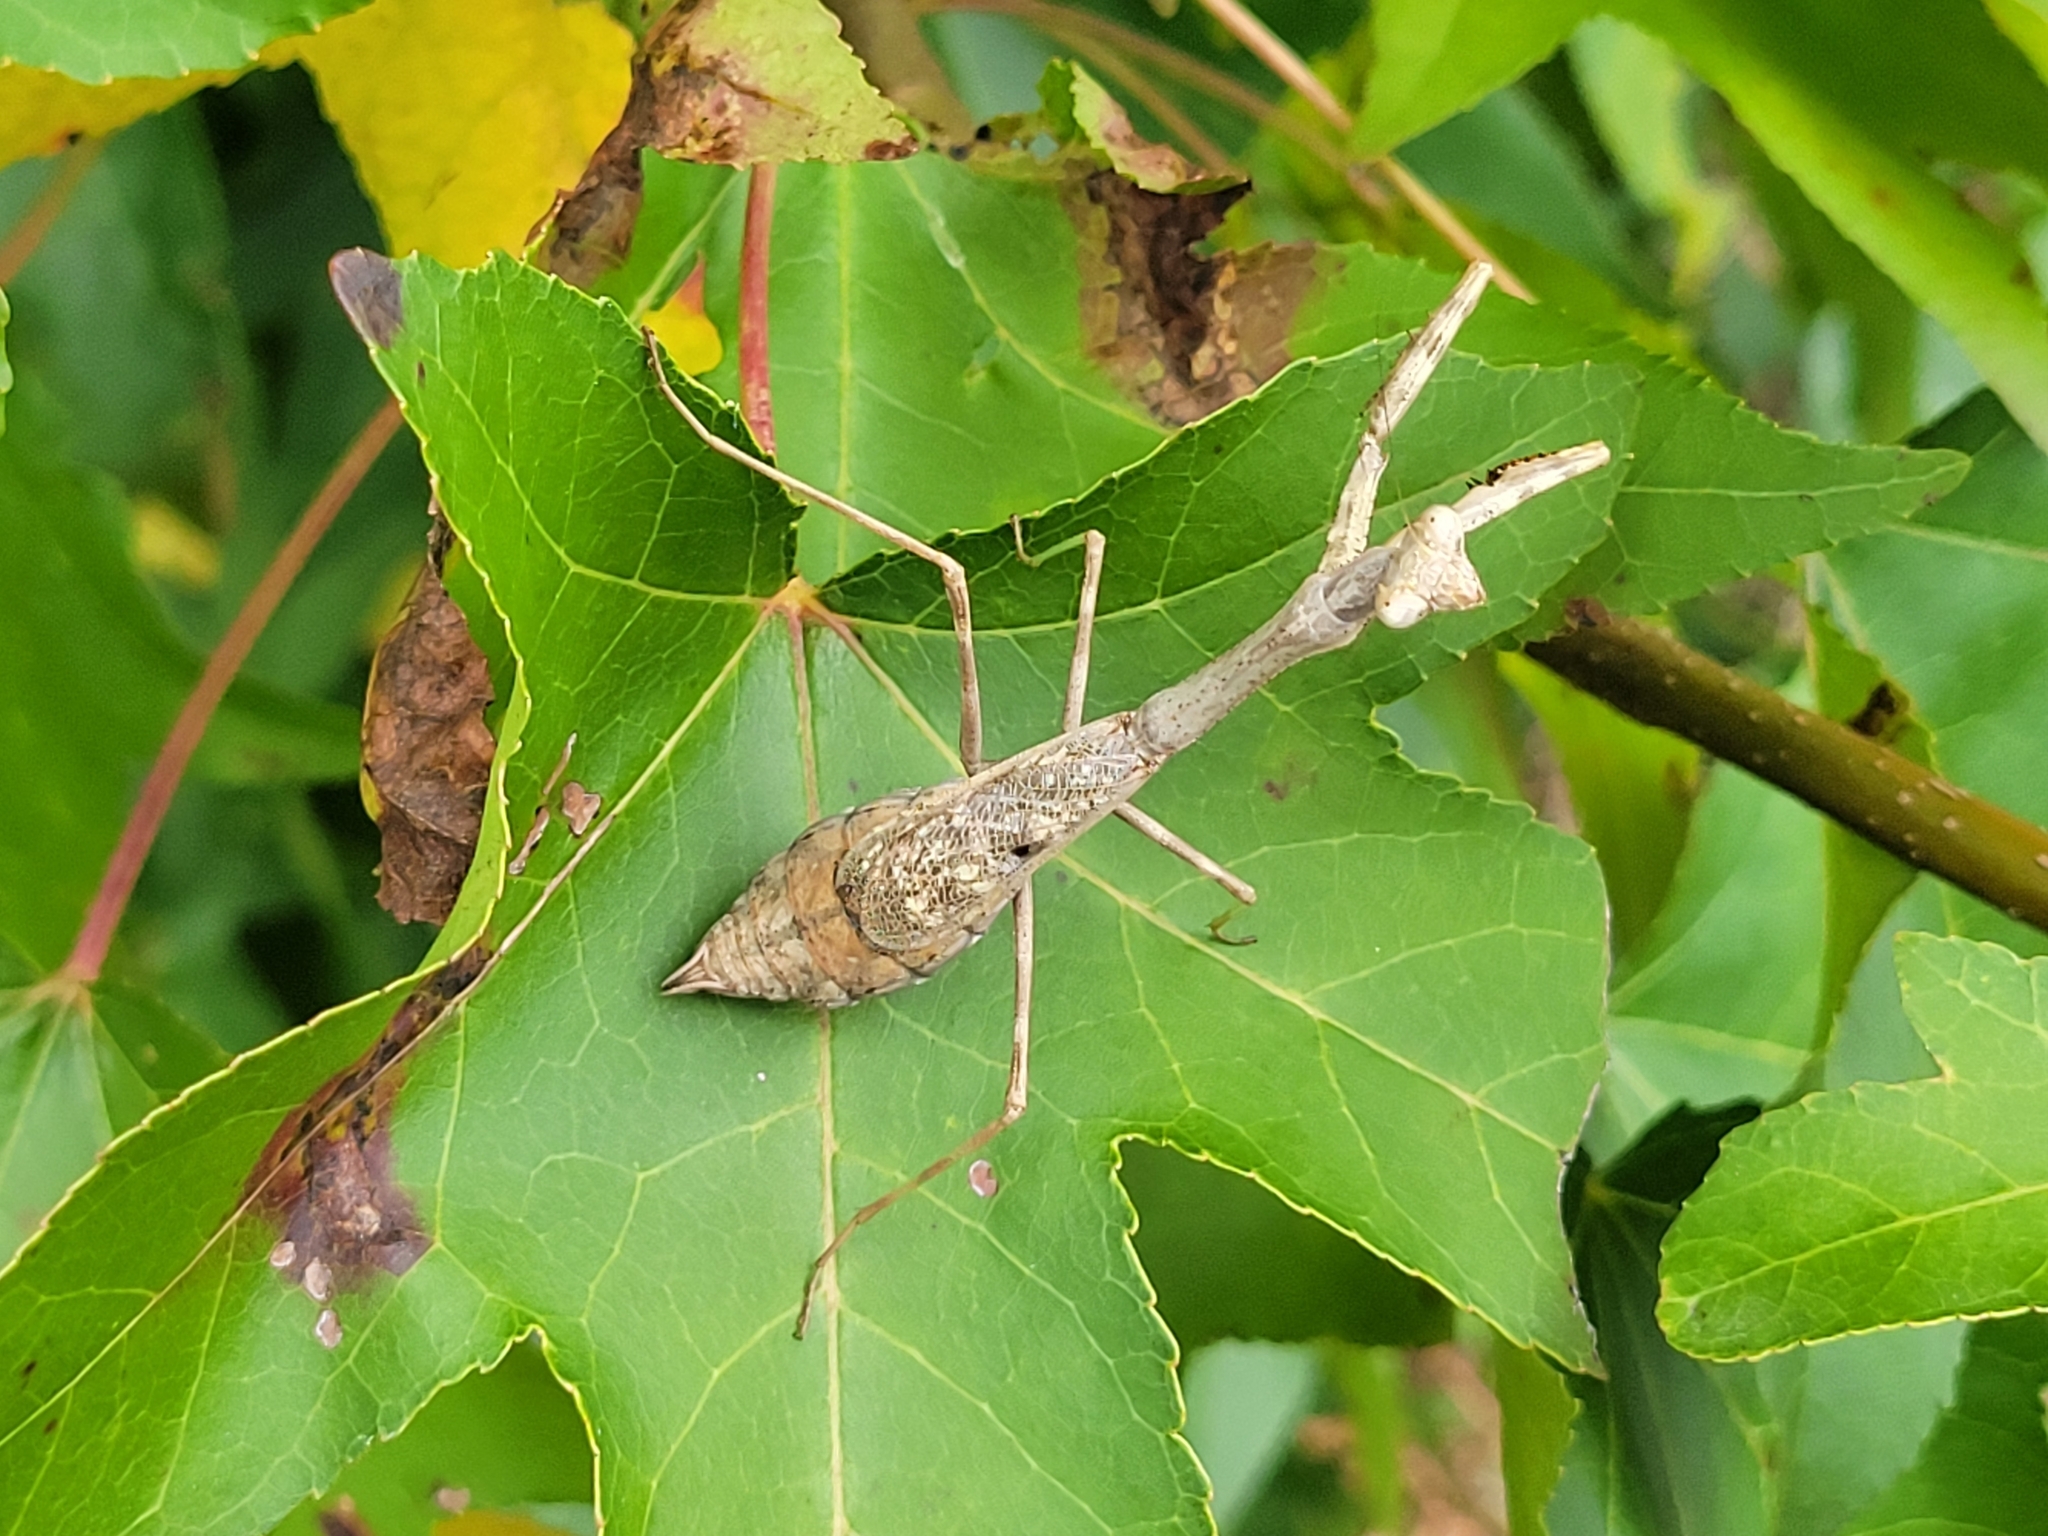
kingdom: Animalia
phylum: Arthropoda
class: Insecta
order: Mantodea
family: Mantidae
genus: Stagmomantis
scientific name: Stagmomantis carolina
